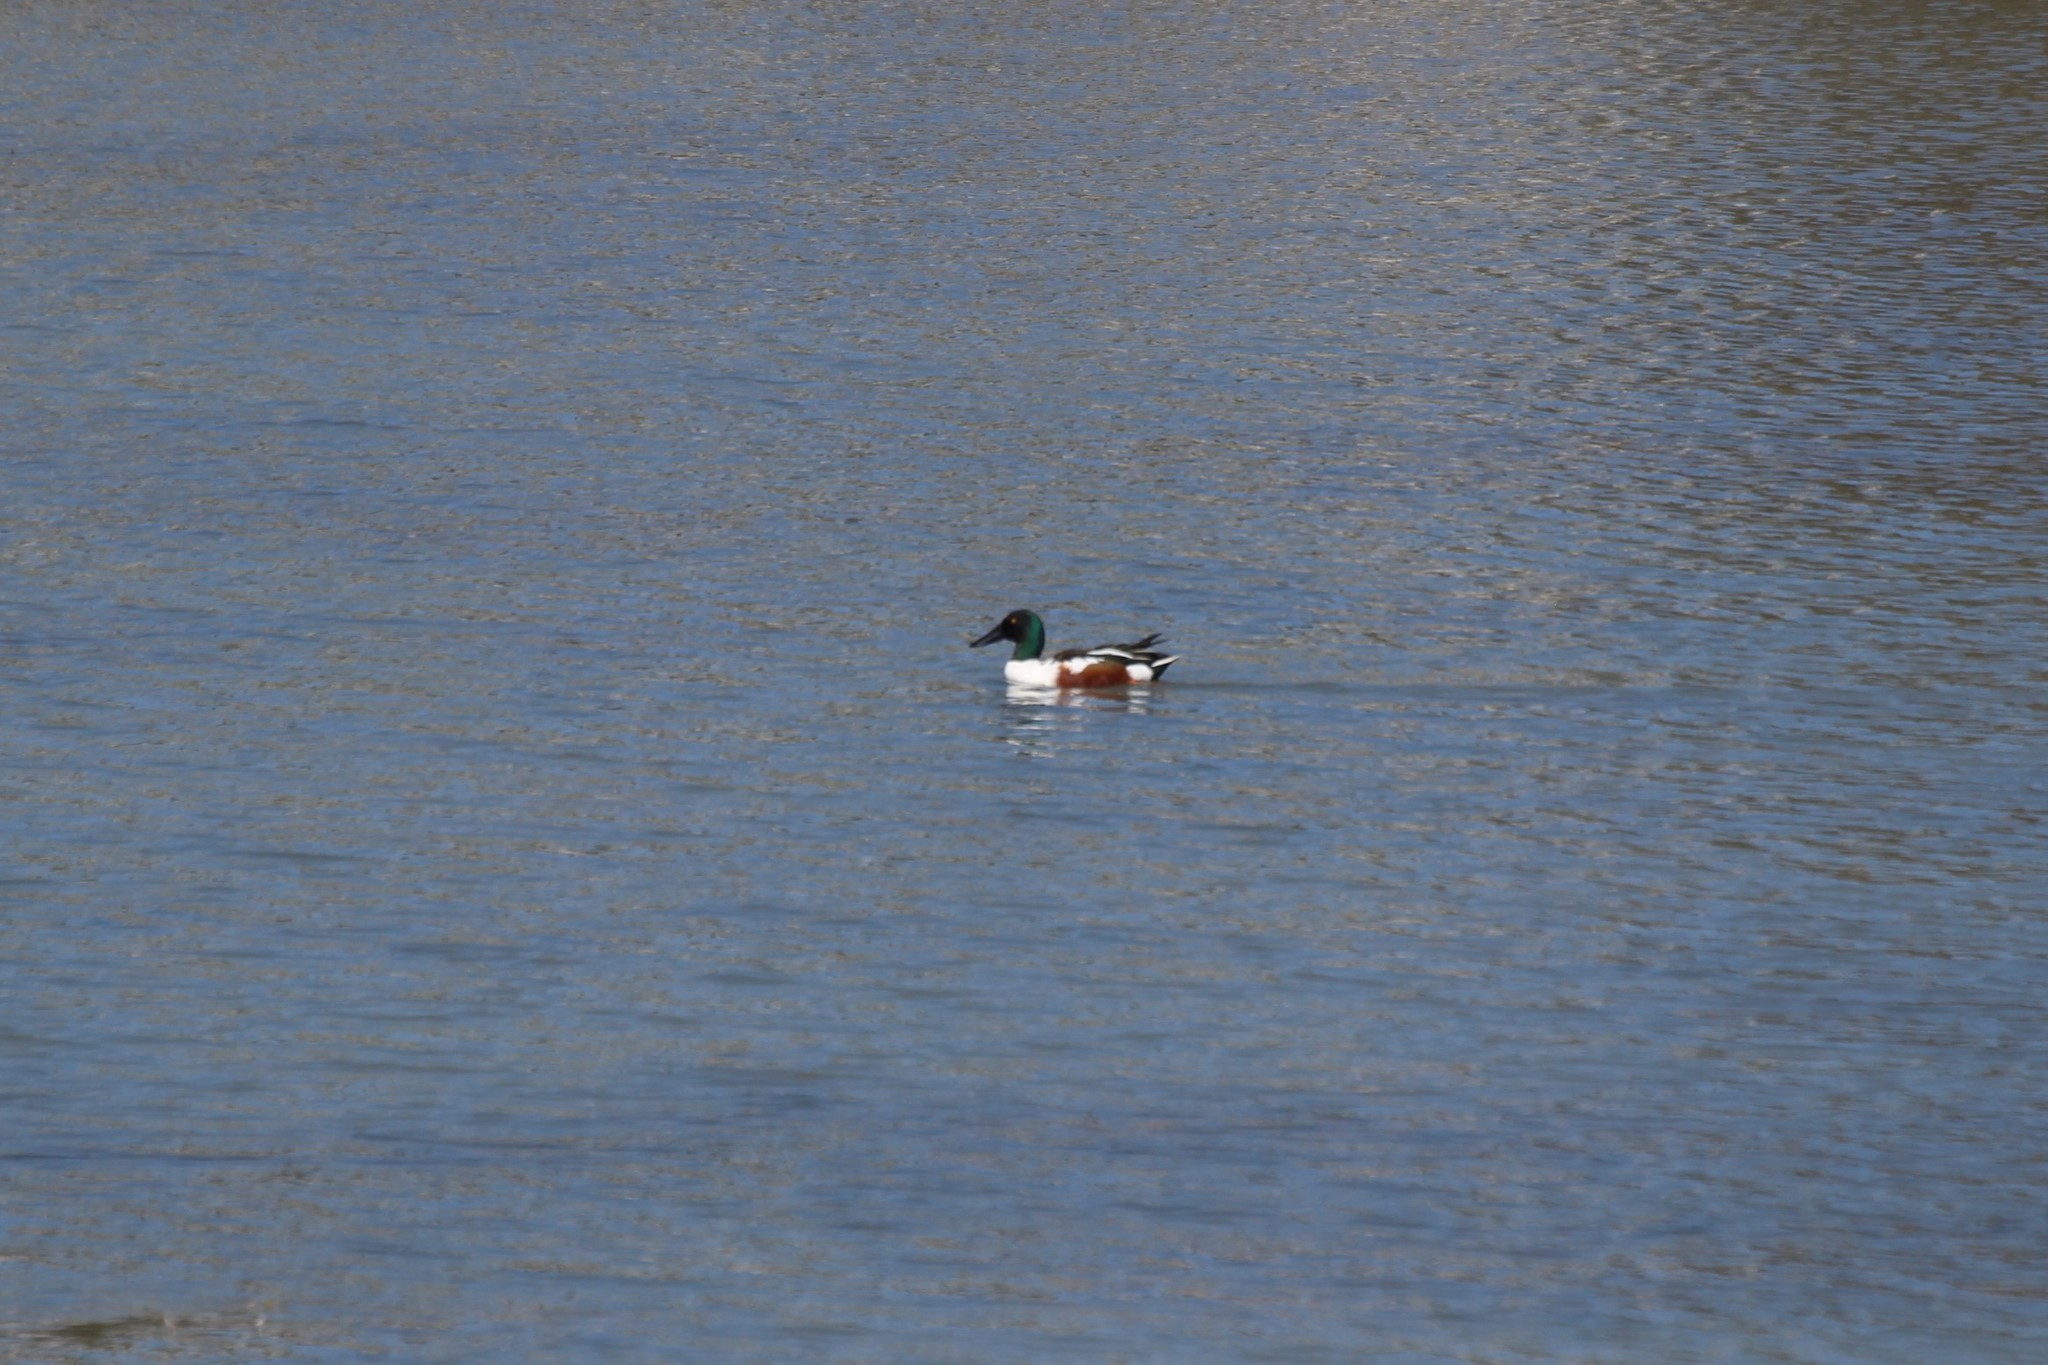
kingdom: Animalia
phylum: Chordata
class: Aves
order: Anseriformes
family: Anatidae
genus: Spatula
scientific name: Spatula clypeata
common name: Northern shoveler
